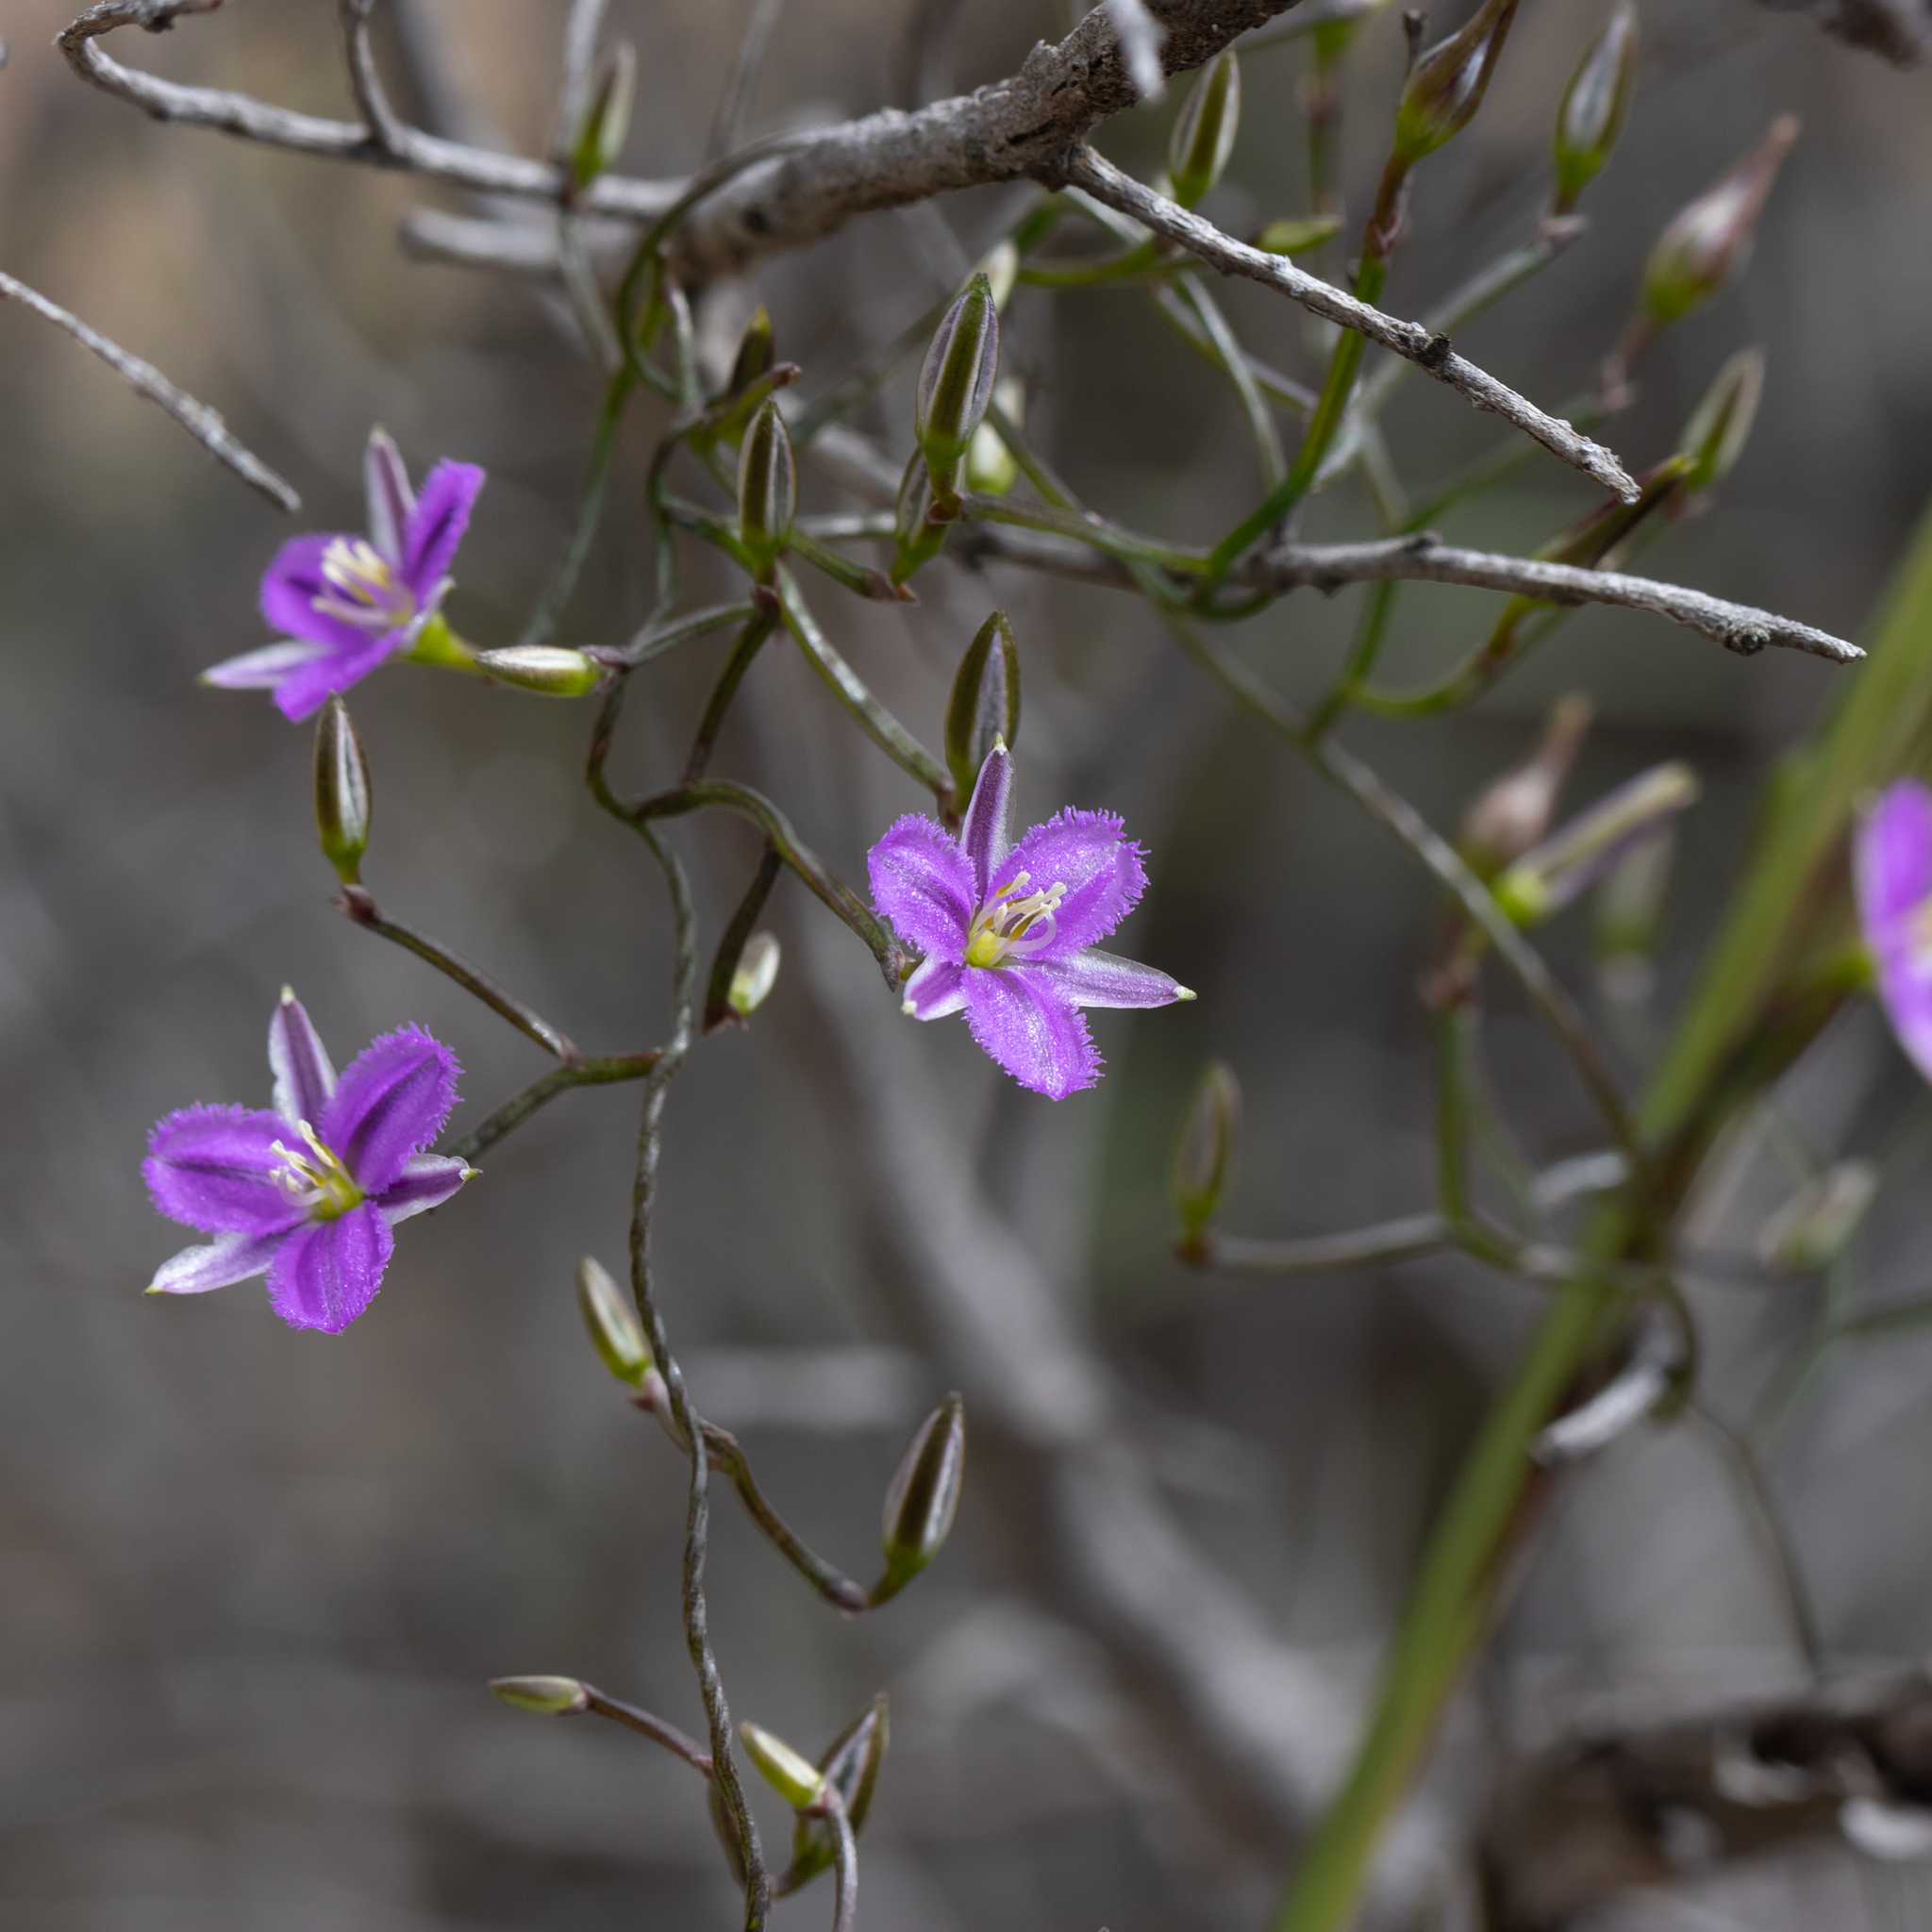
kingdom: Plantae
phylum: Tracheophyta
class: Liliopsida
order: Asparagales
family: Asparagaceae
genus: Thysanotus
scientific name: Thysanotus patersonii
